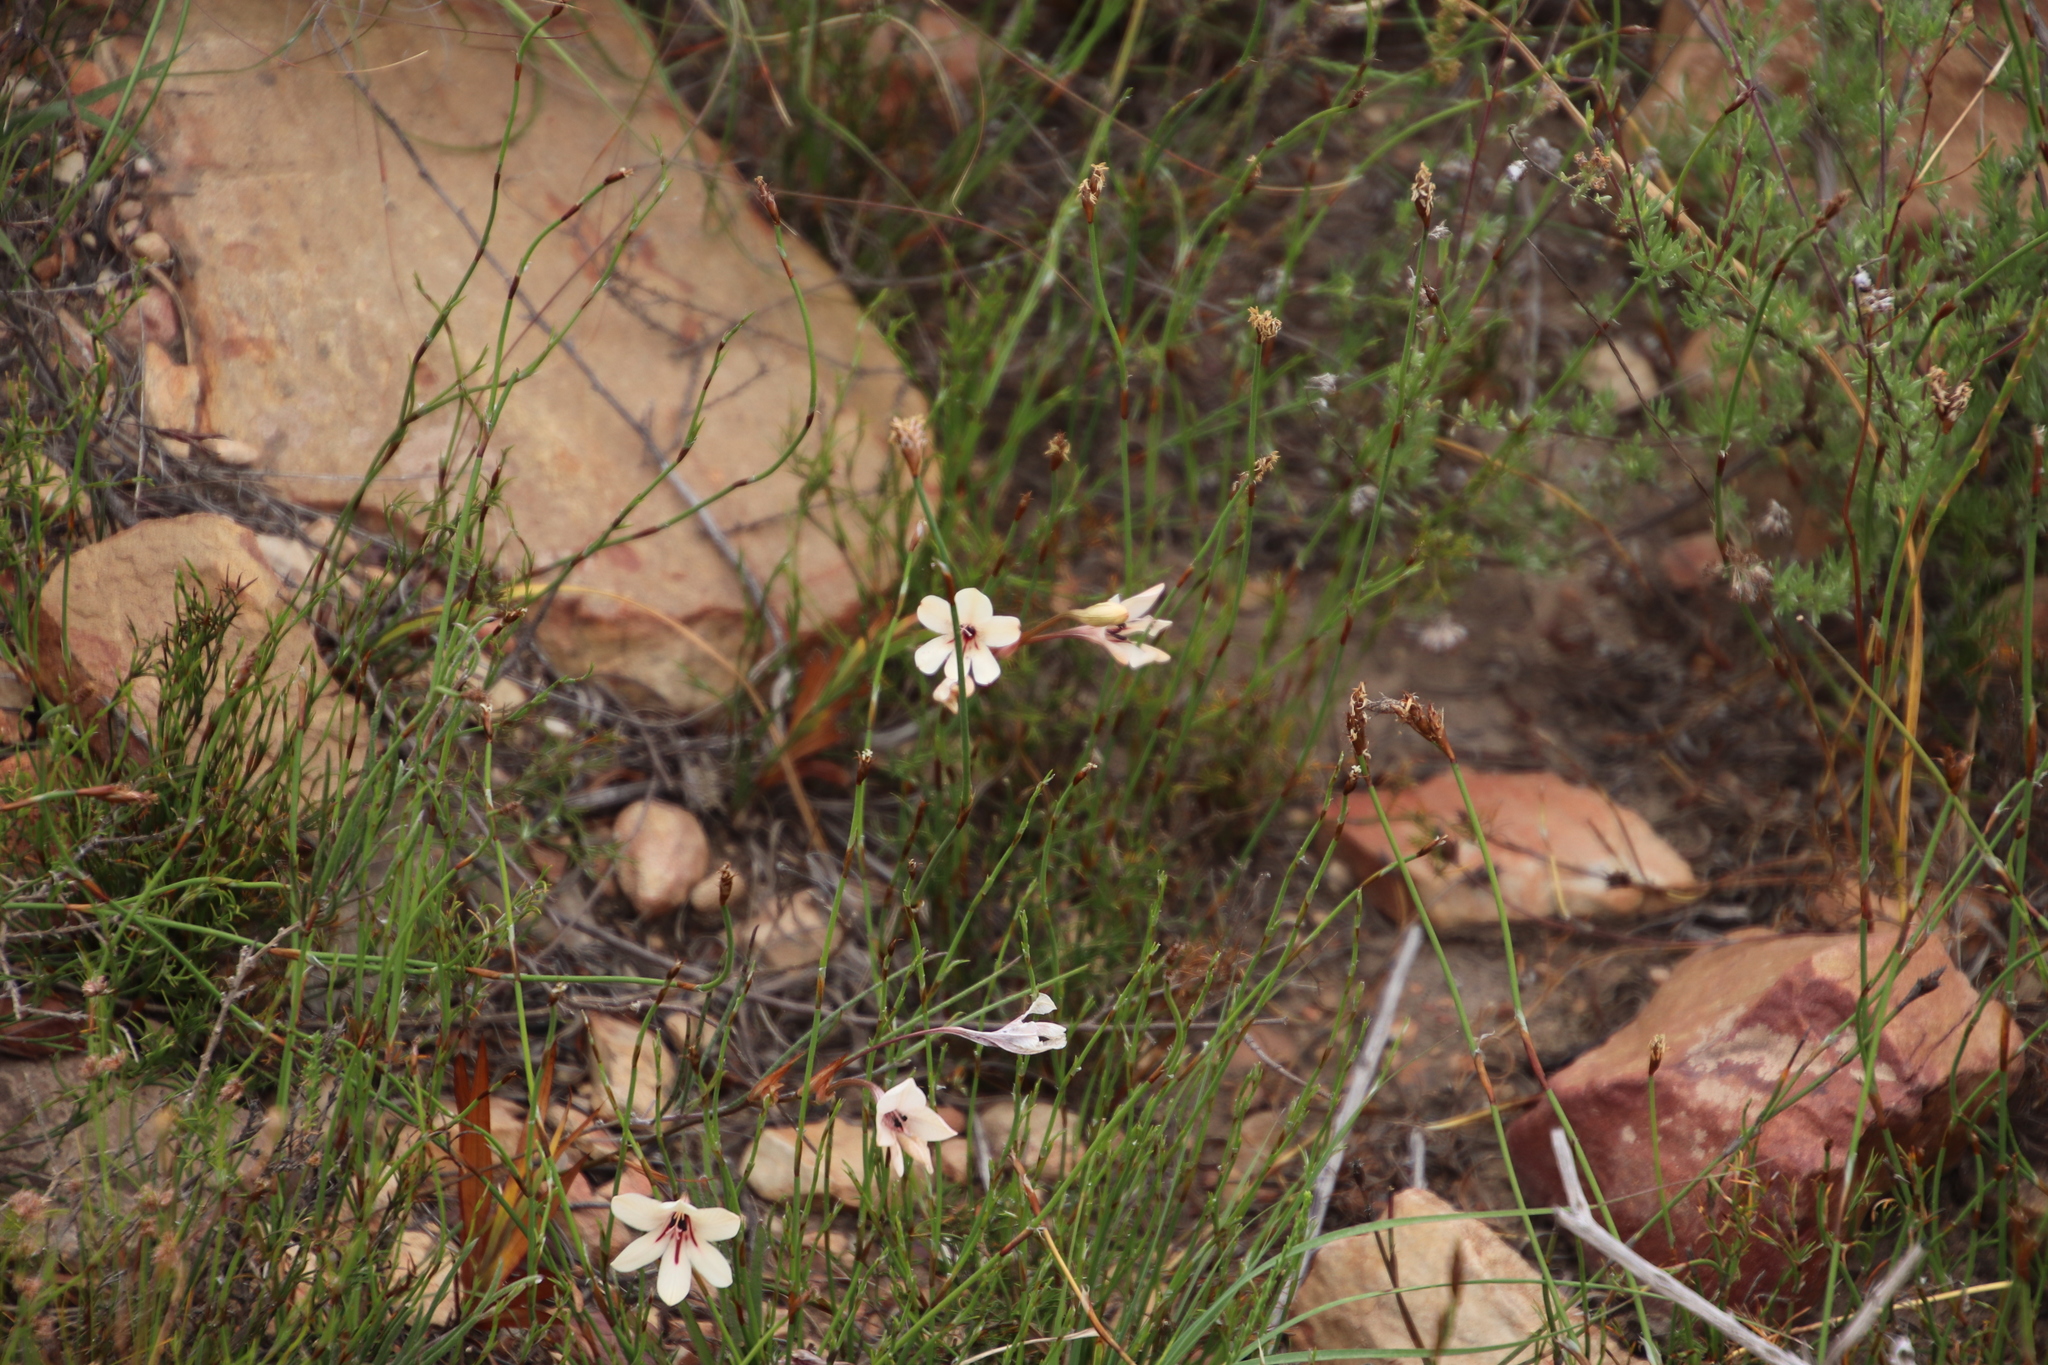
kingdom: Plantae
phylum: Tracheophyta
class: Liliopsida
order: Asparagales
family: Iridaceae
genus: Tritonia
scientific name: Tritonia flabellifolia
